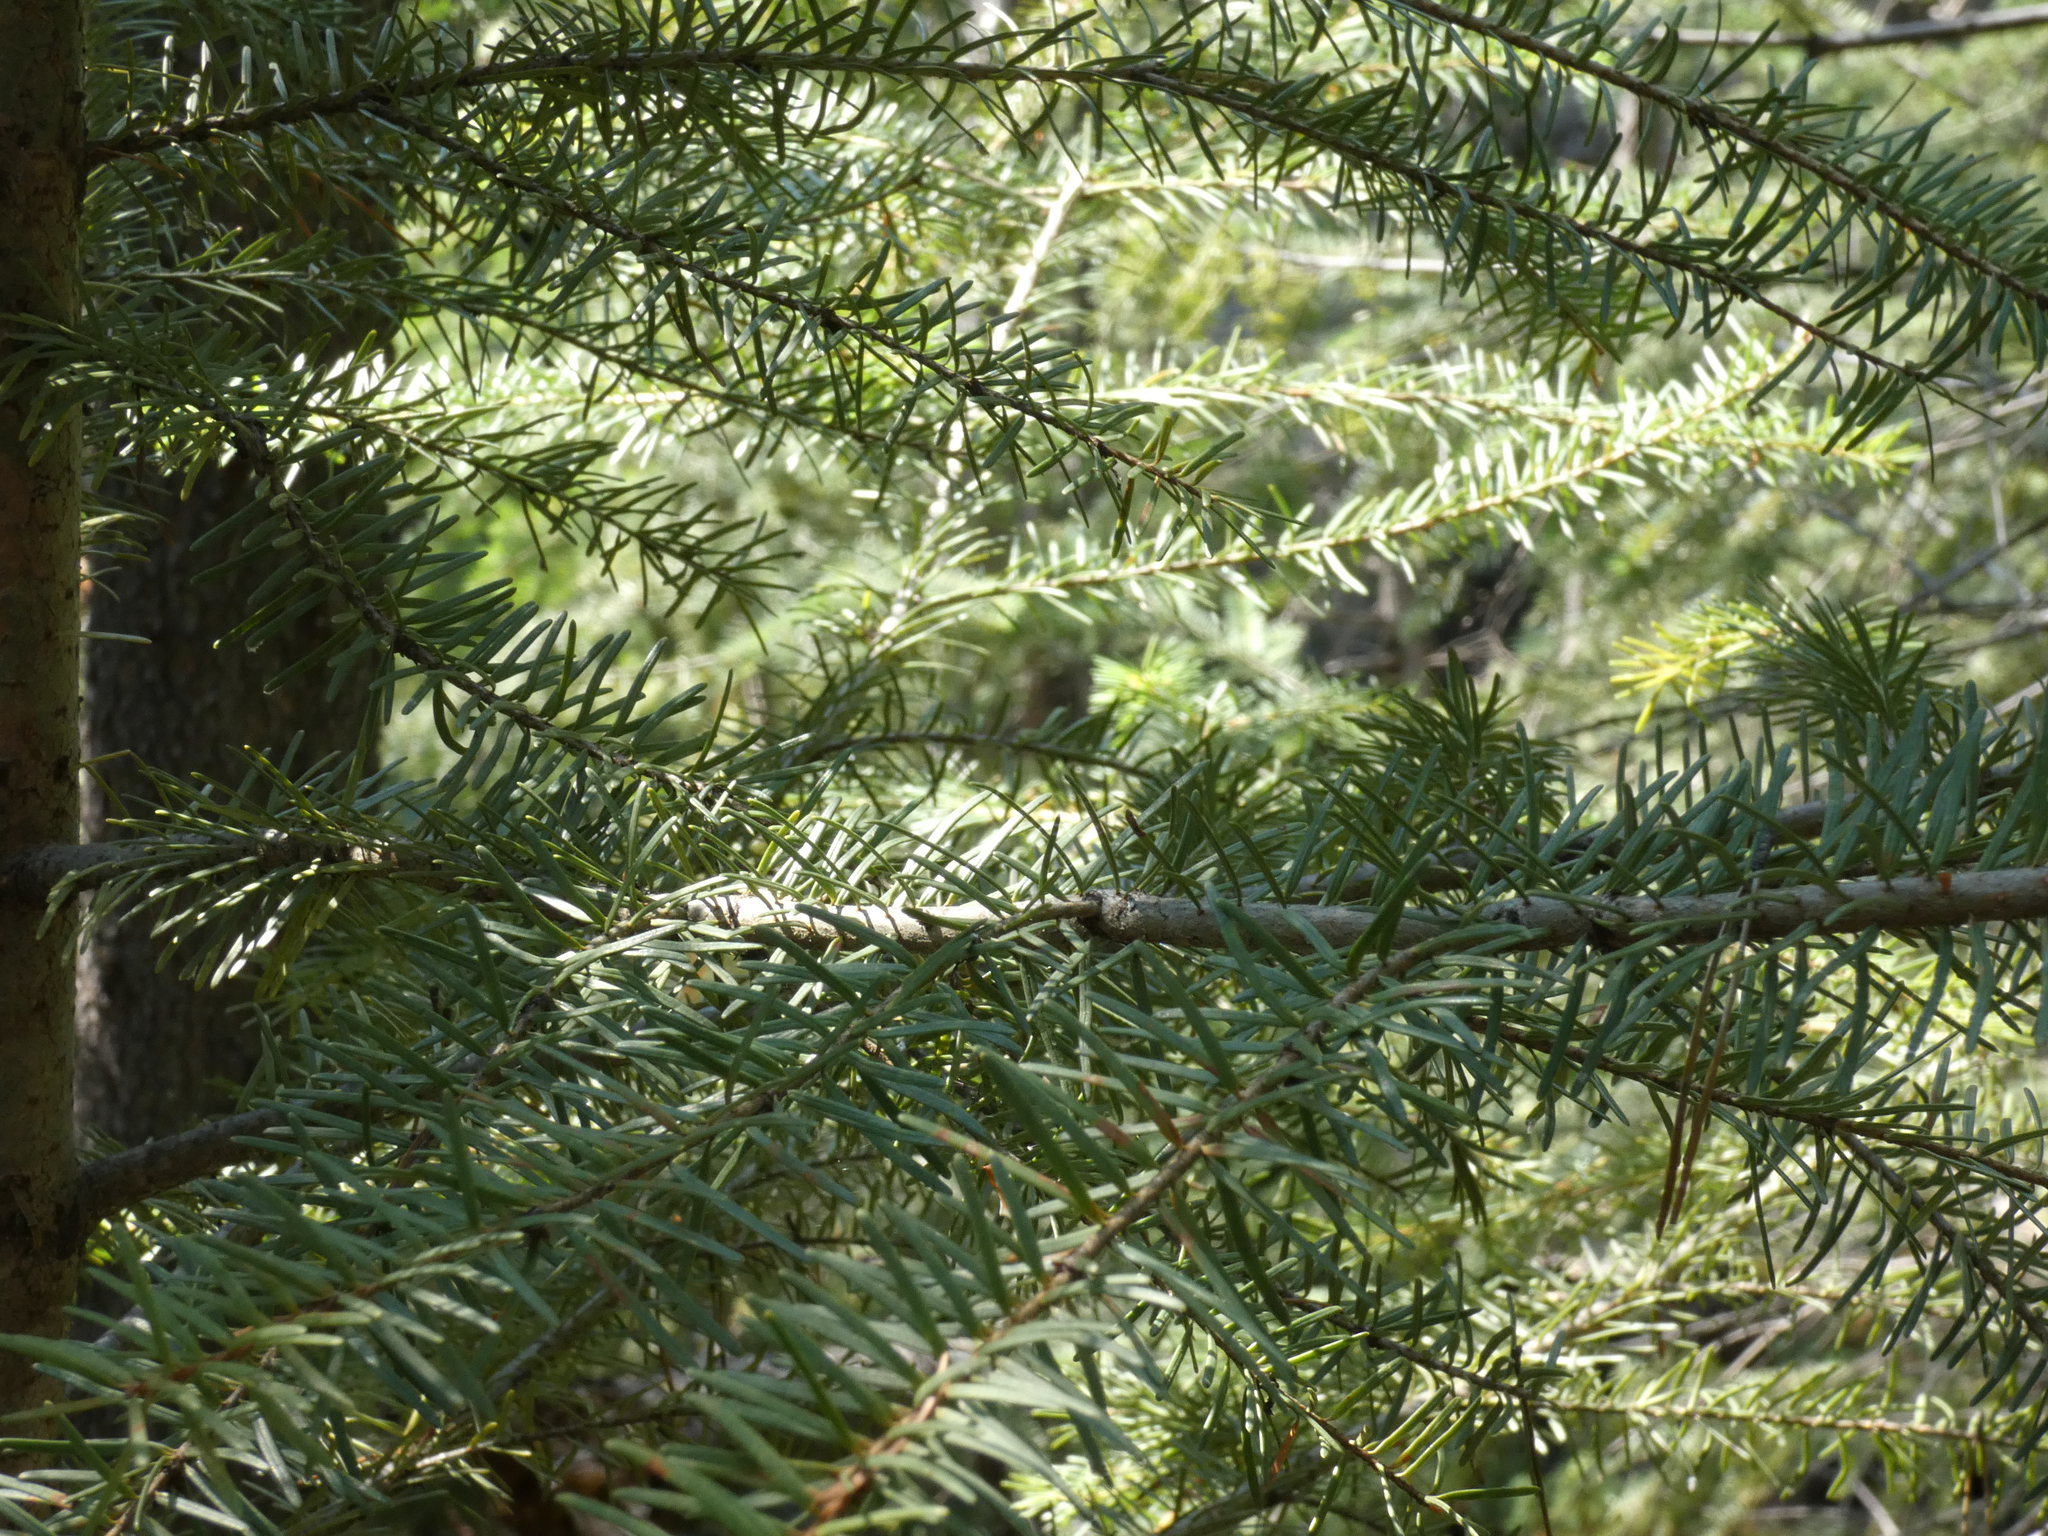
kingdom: Plantae
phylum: Tracheophyta
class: Pinopsida
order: Pinales
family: Pinaceae
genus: Pseudotsuga
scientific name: Pseudotsuga menziesii
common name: Douglas fir
